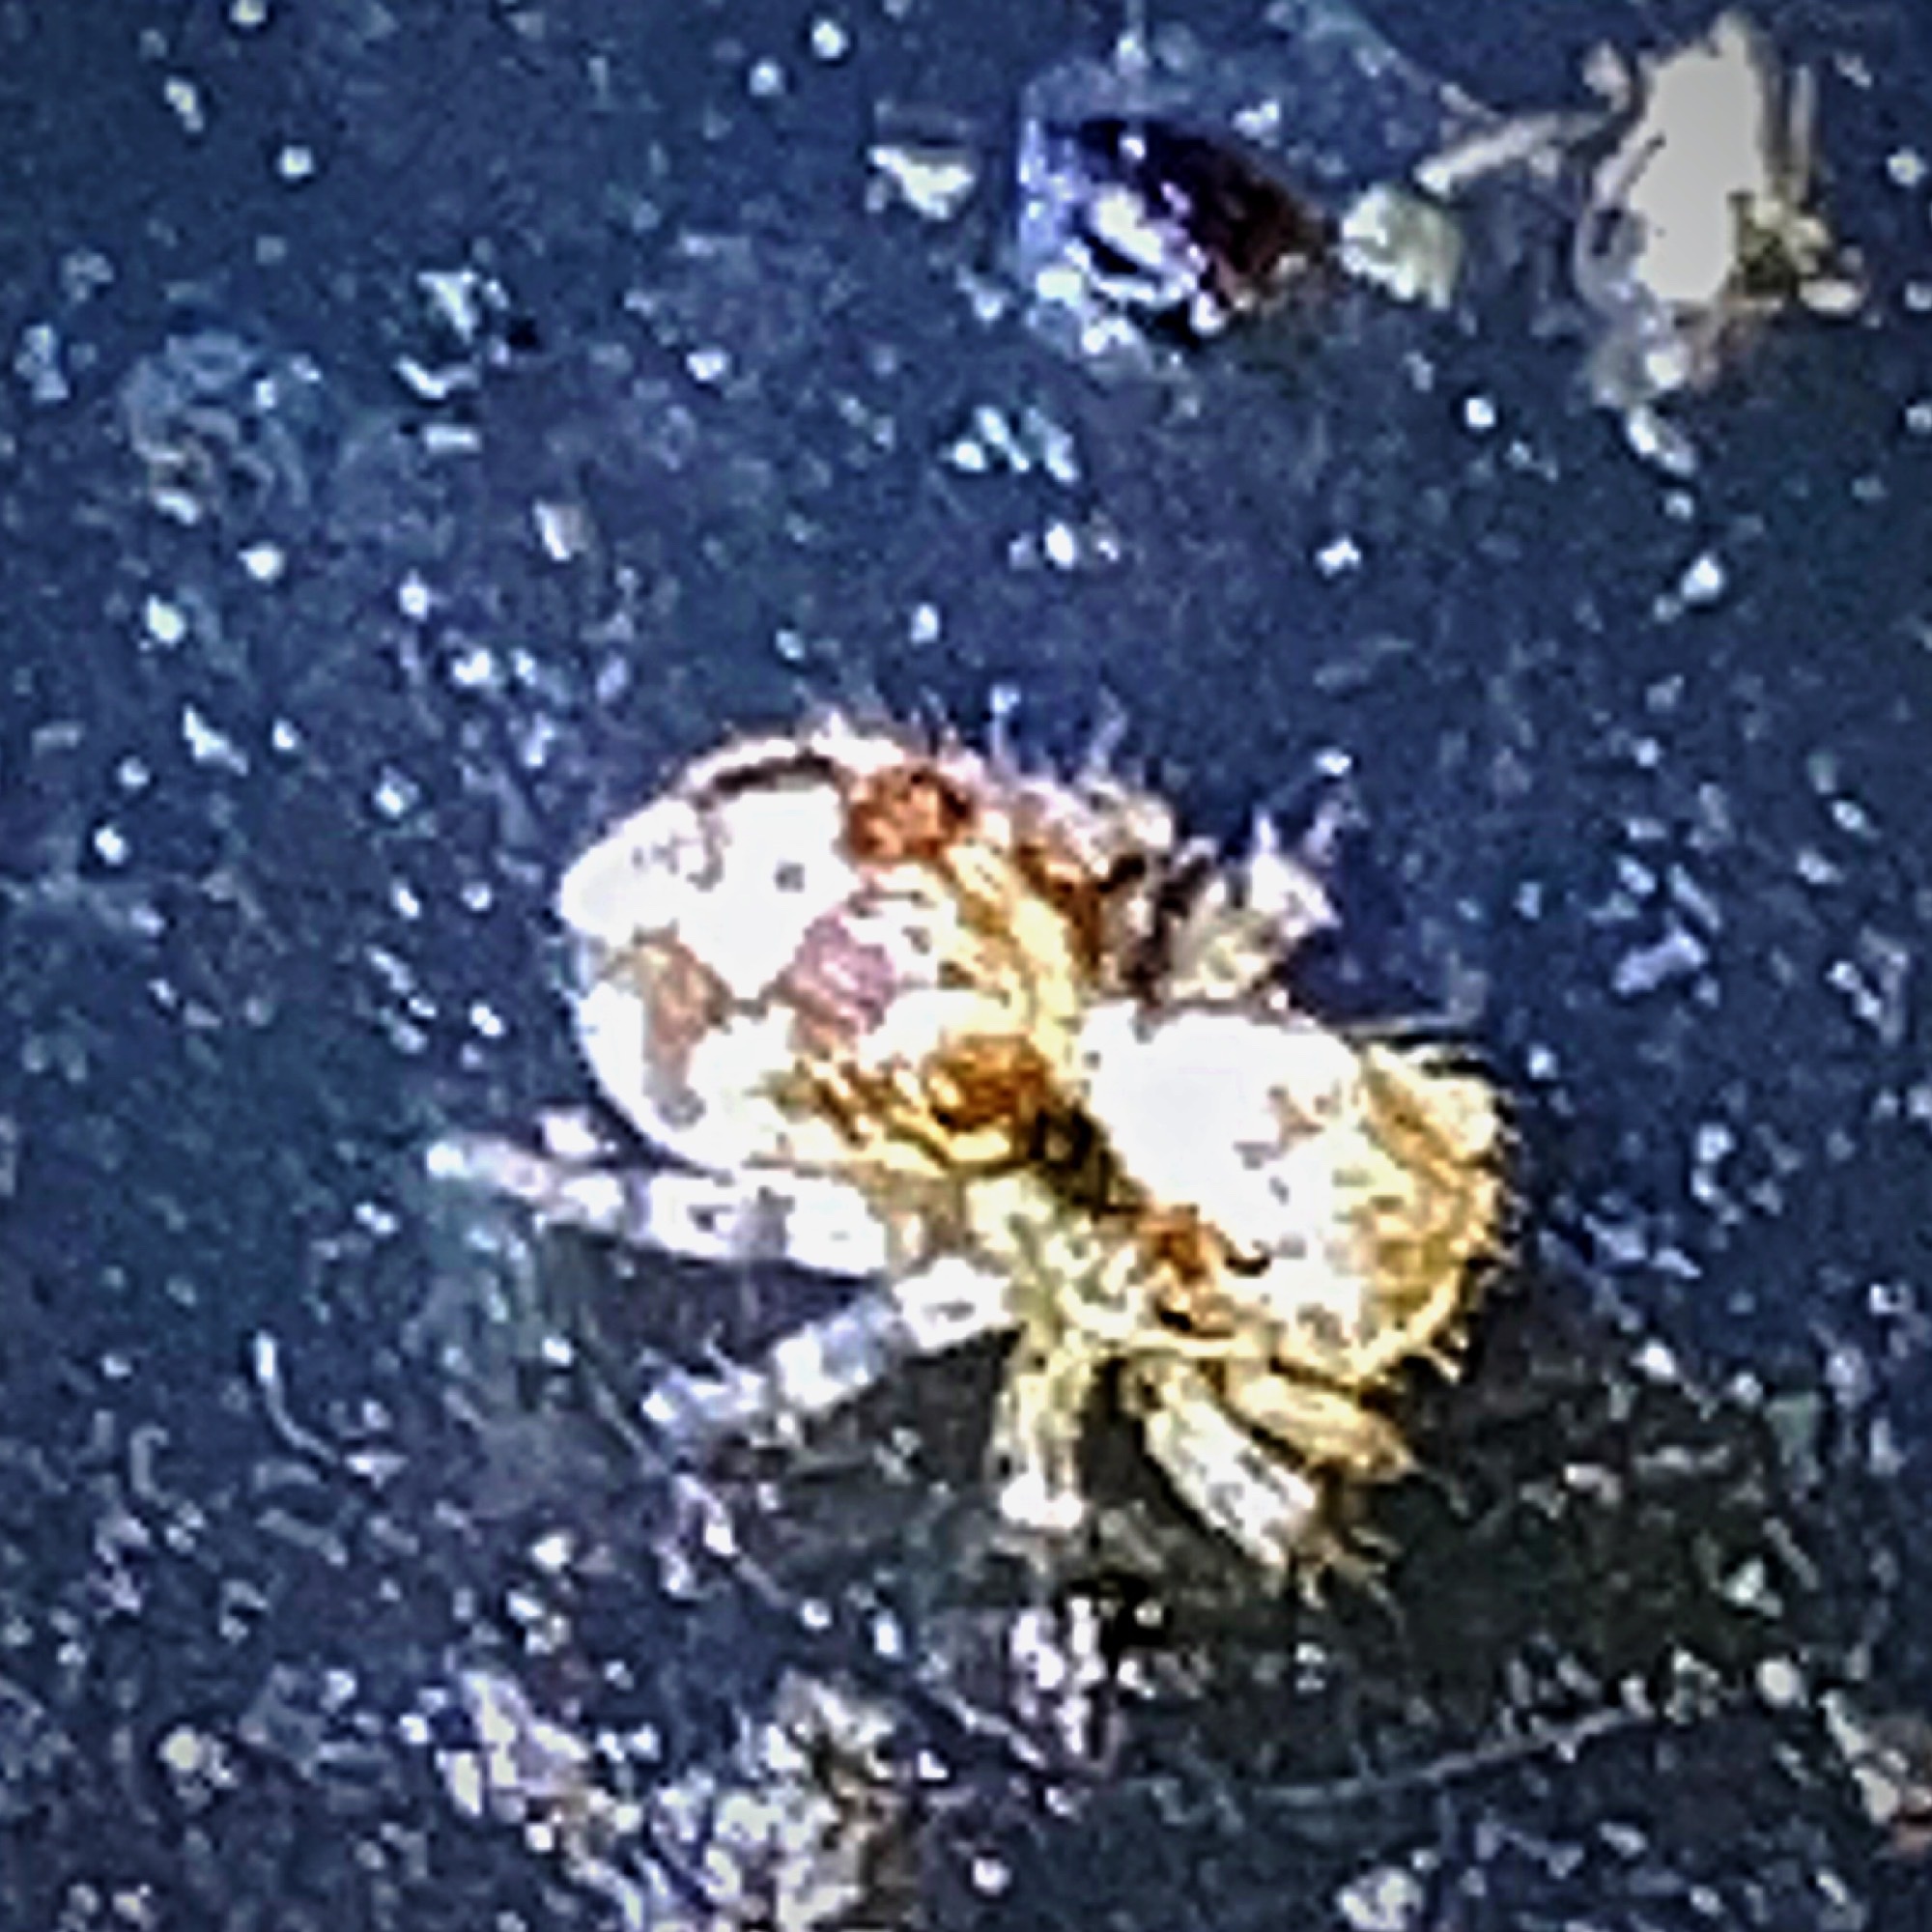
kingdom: Animalia
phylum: Arthropoda
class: Arachnida
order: Araneae
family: Salticidae
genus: Naphrys
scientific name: Naphrys pulex
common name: Flea jumping spider
